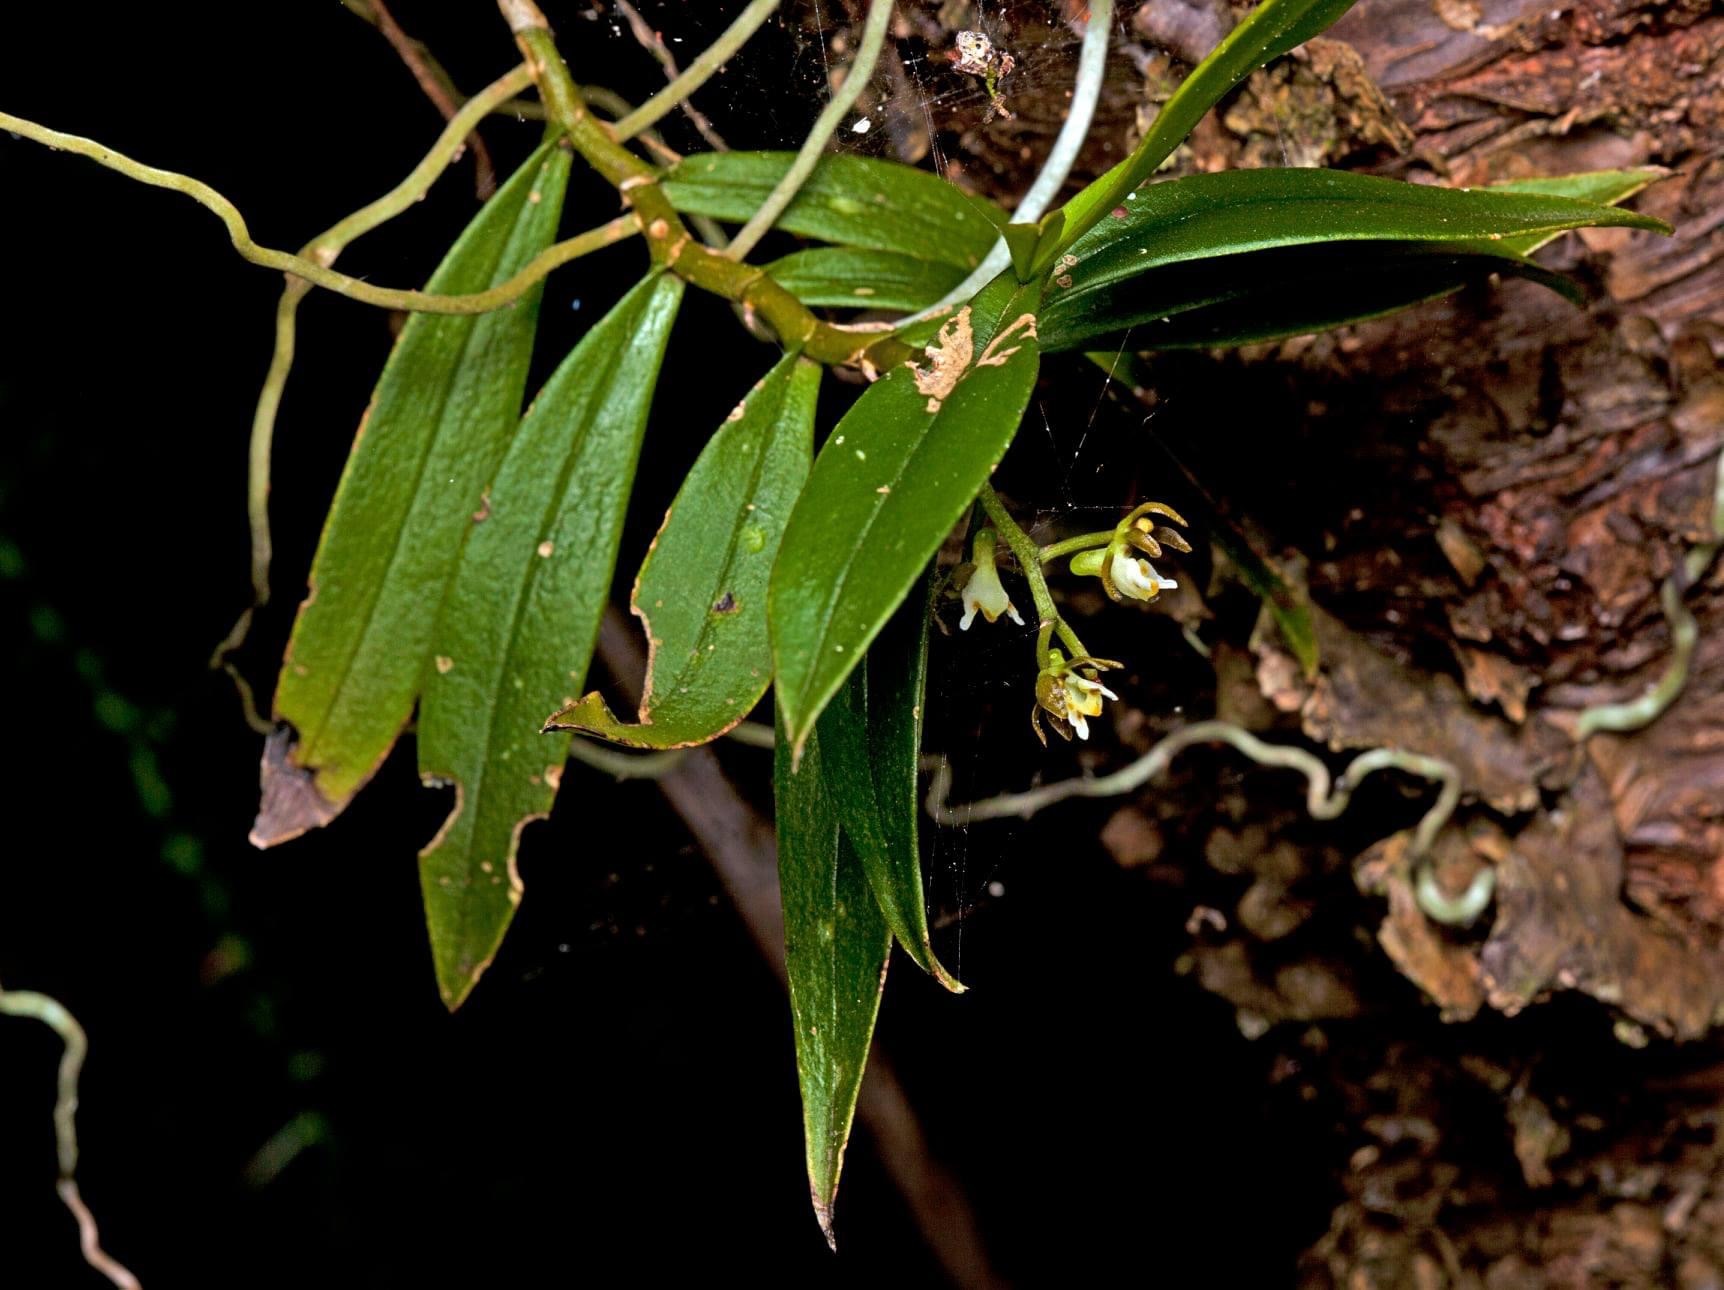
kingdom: Plantae
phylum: Tracheophyta
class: Liliopsida
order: Asparagales
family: Orchidaceae
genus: Plectorrhiza
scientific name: Plectorrhiza tridentata
